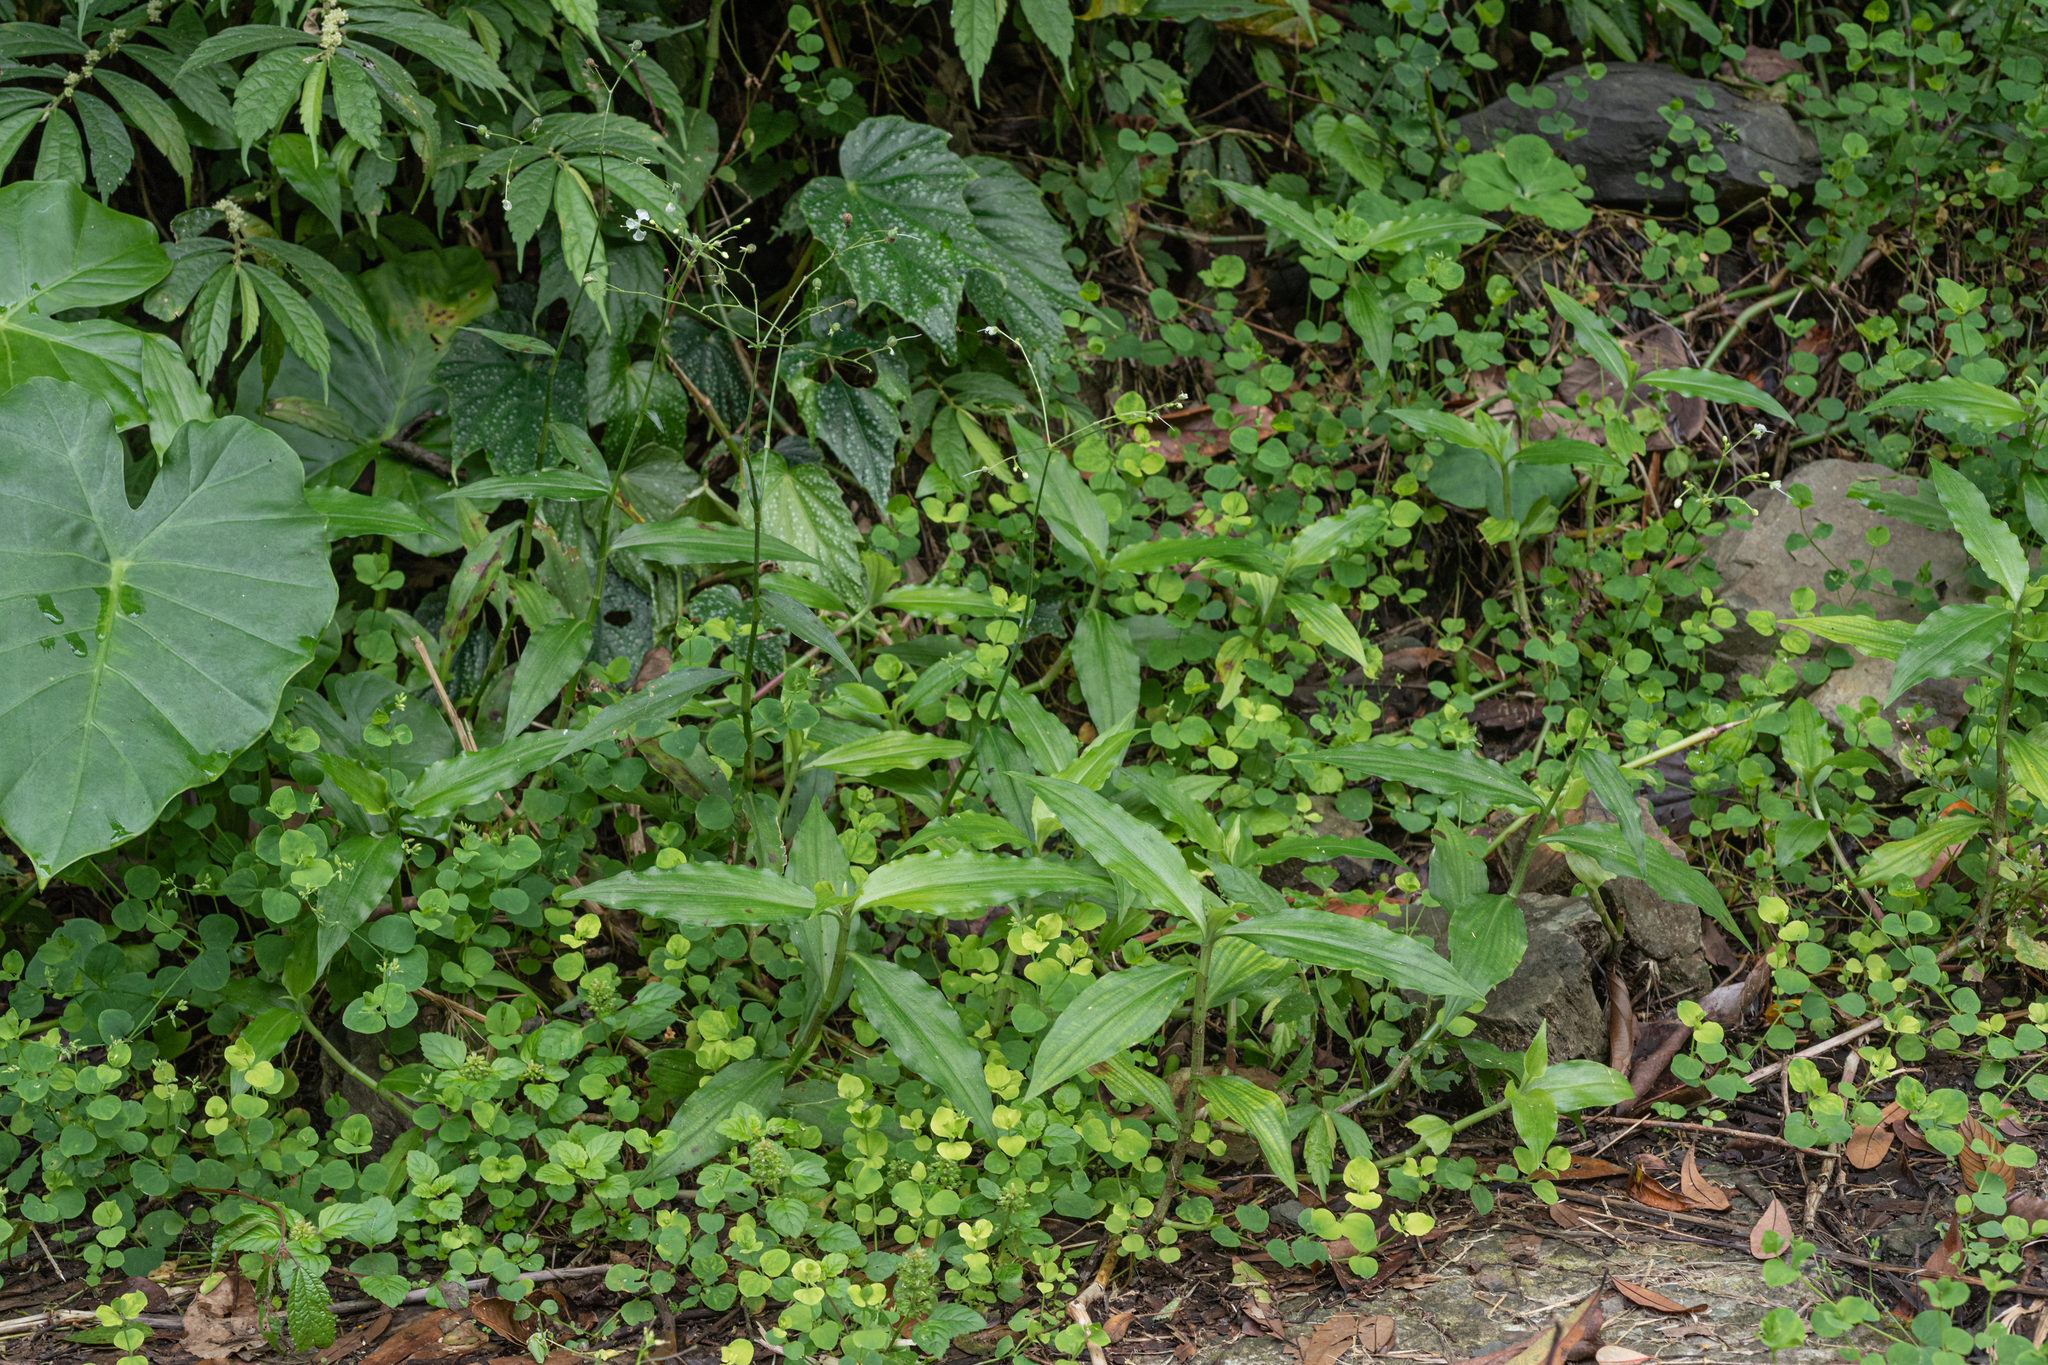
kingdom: Plantae
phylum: Tracheophyta
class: Liliopsida
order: Commelinales
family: Commelinaceae
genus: Rhopalephora
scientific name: Rhopalephora scaberrima
